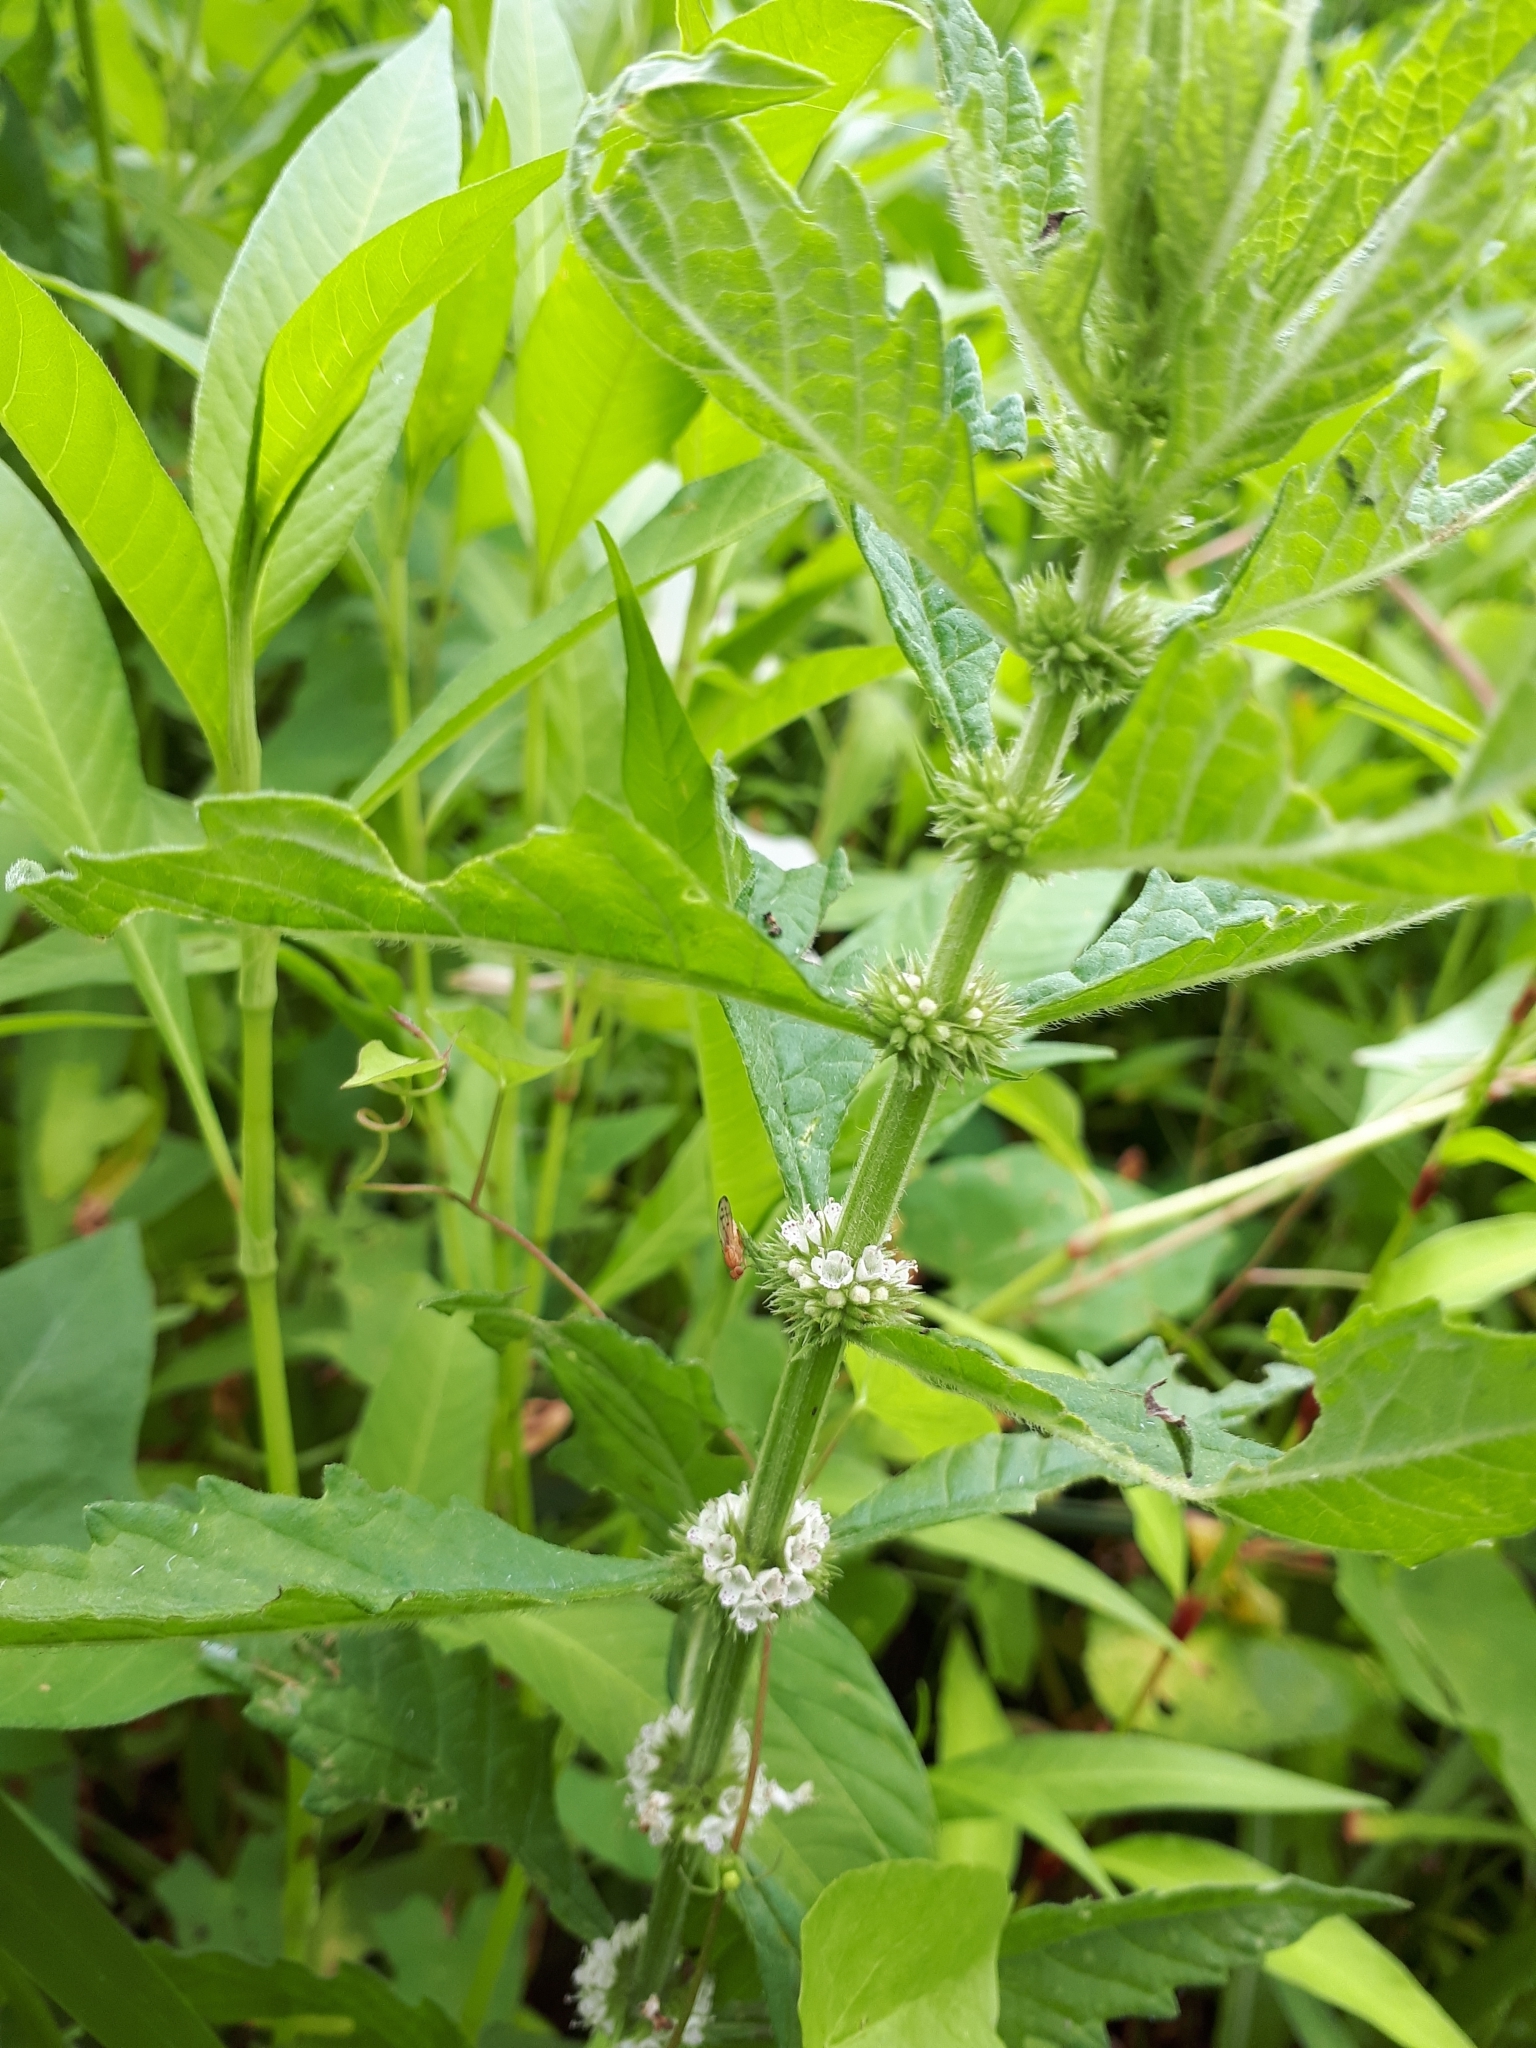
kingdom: Plantae
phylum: Tracheophyta
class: Magnoliopsida
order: Lamiales
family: Lamiaceae
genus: Lycopus
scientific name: Lycopus europaeus
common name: European bugleweed
